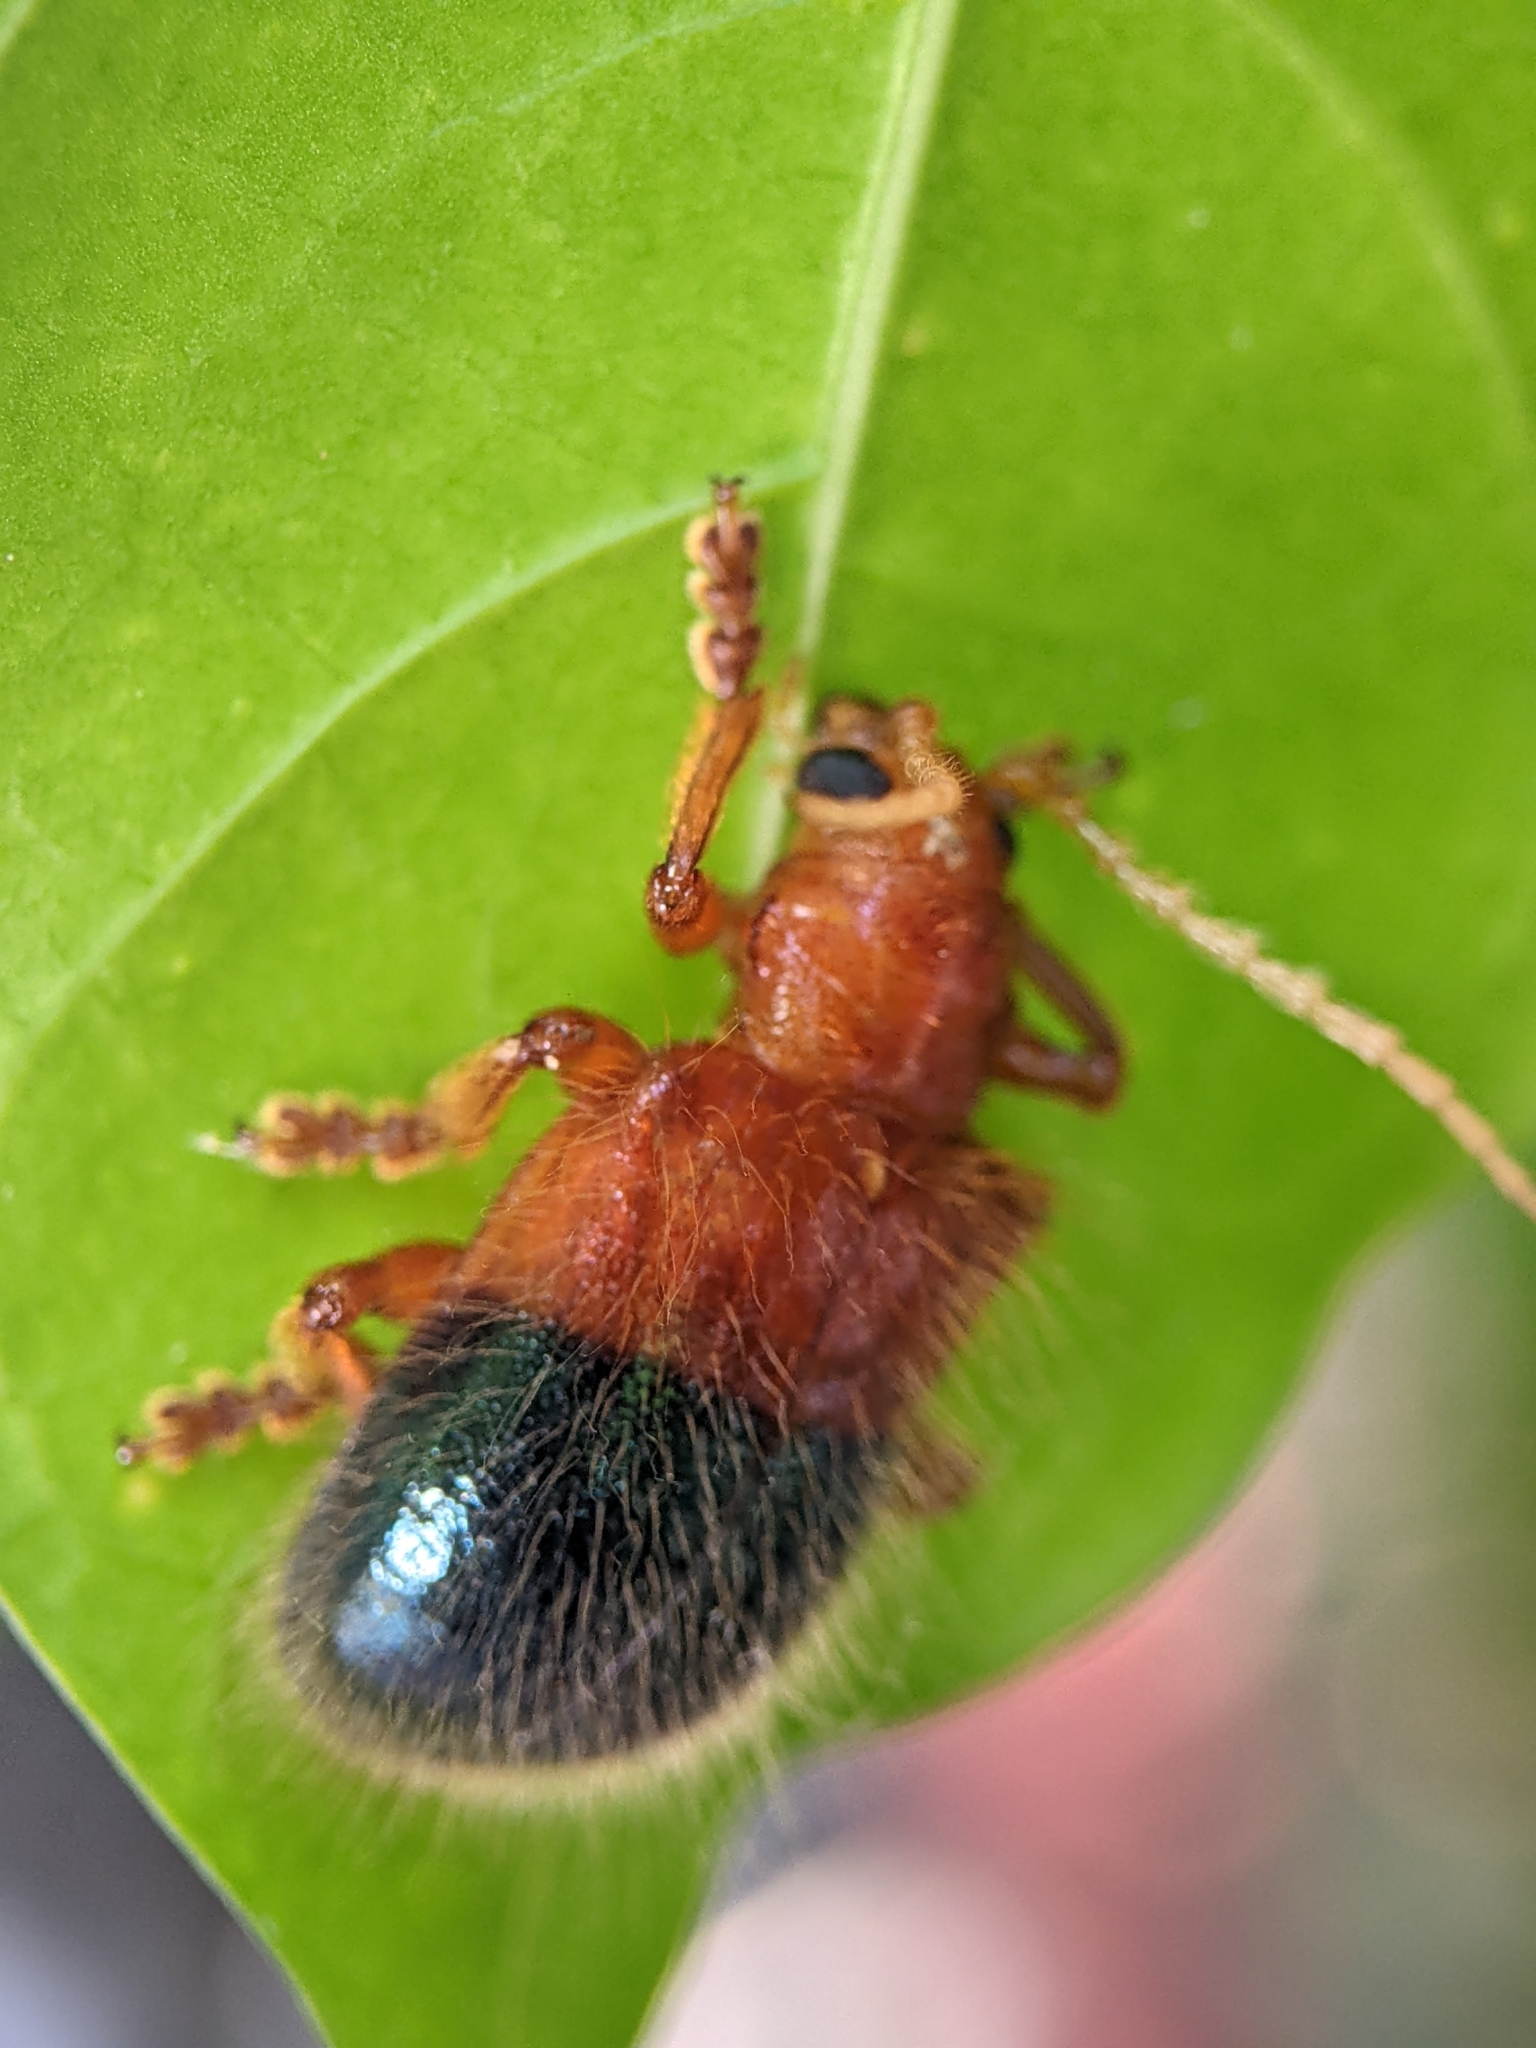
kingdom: Animalia
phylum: Arthropoda
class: Insecta
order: Coleoptera
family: Chrysomelidae
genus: Goniopleura
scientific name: Goniopleura auricoma
